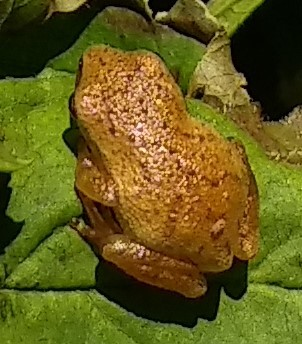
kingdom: Animalia
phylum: Chordata
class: Amphibia
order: Anura
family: Hylidae
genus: Pseudacris
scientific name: Pseudacris crucifer
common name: Spring peeper
